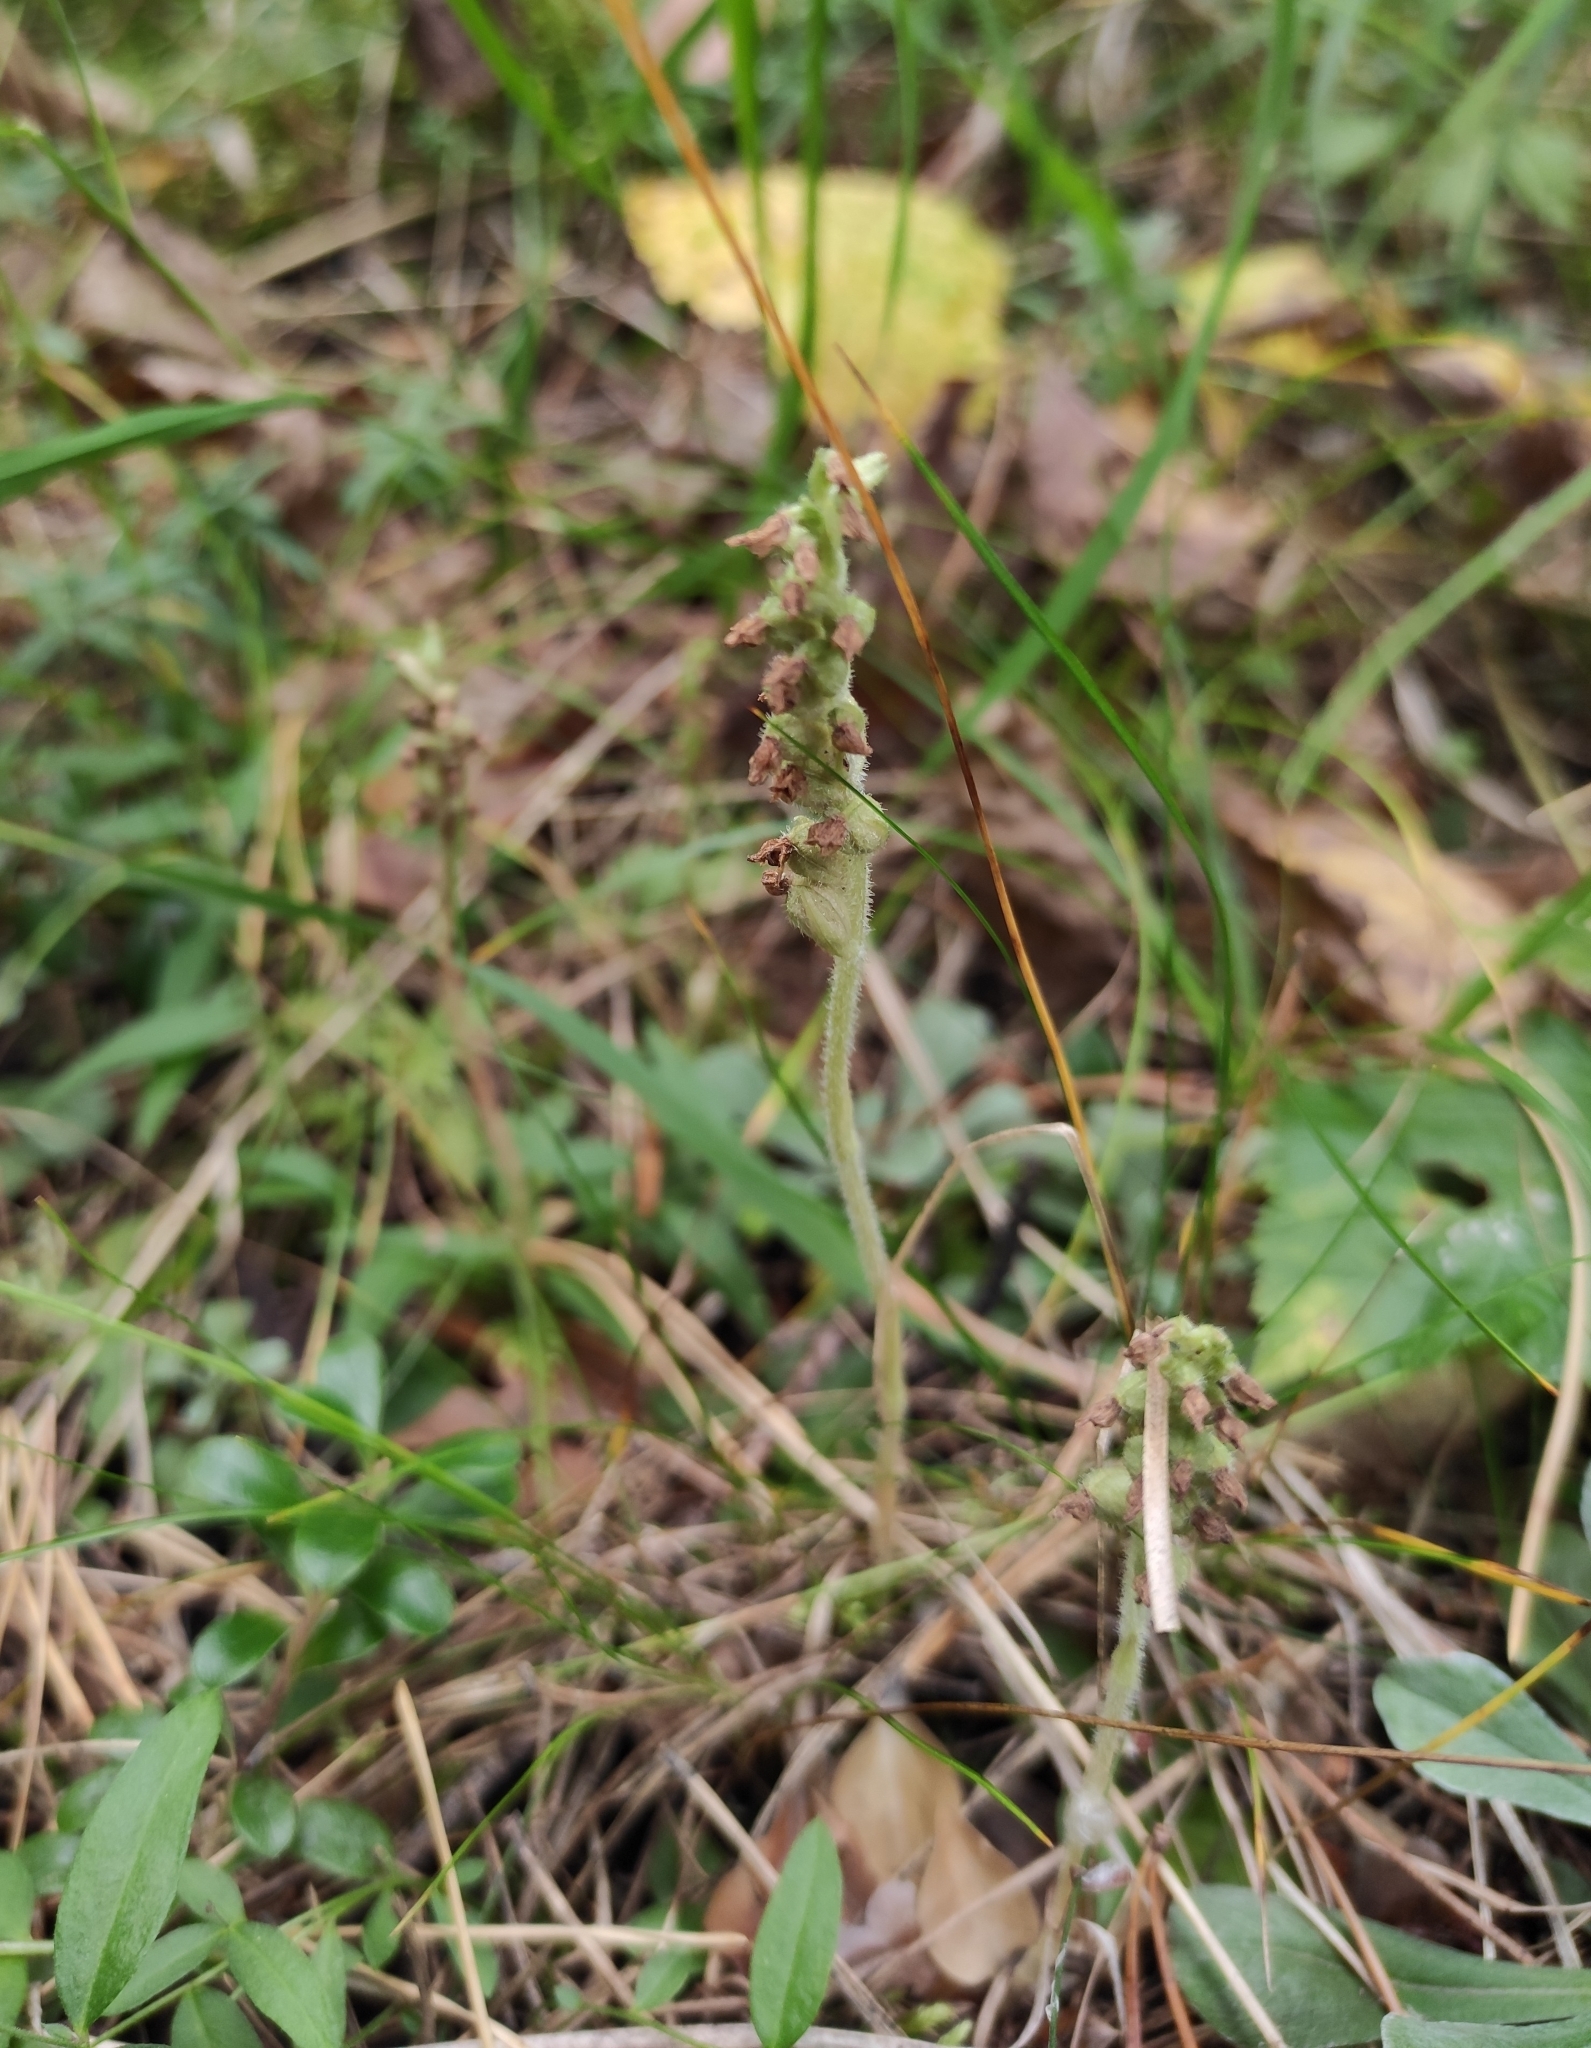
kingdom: Plantae
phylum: Tracheophyta
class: Liliopsida
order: Asparagales
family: Orchidaceae
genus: Goodyera
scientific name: Goodyera repens
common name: Creeping lady's-tresses
